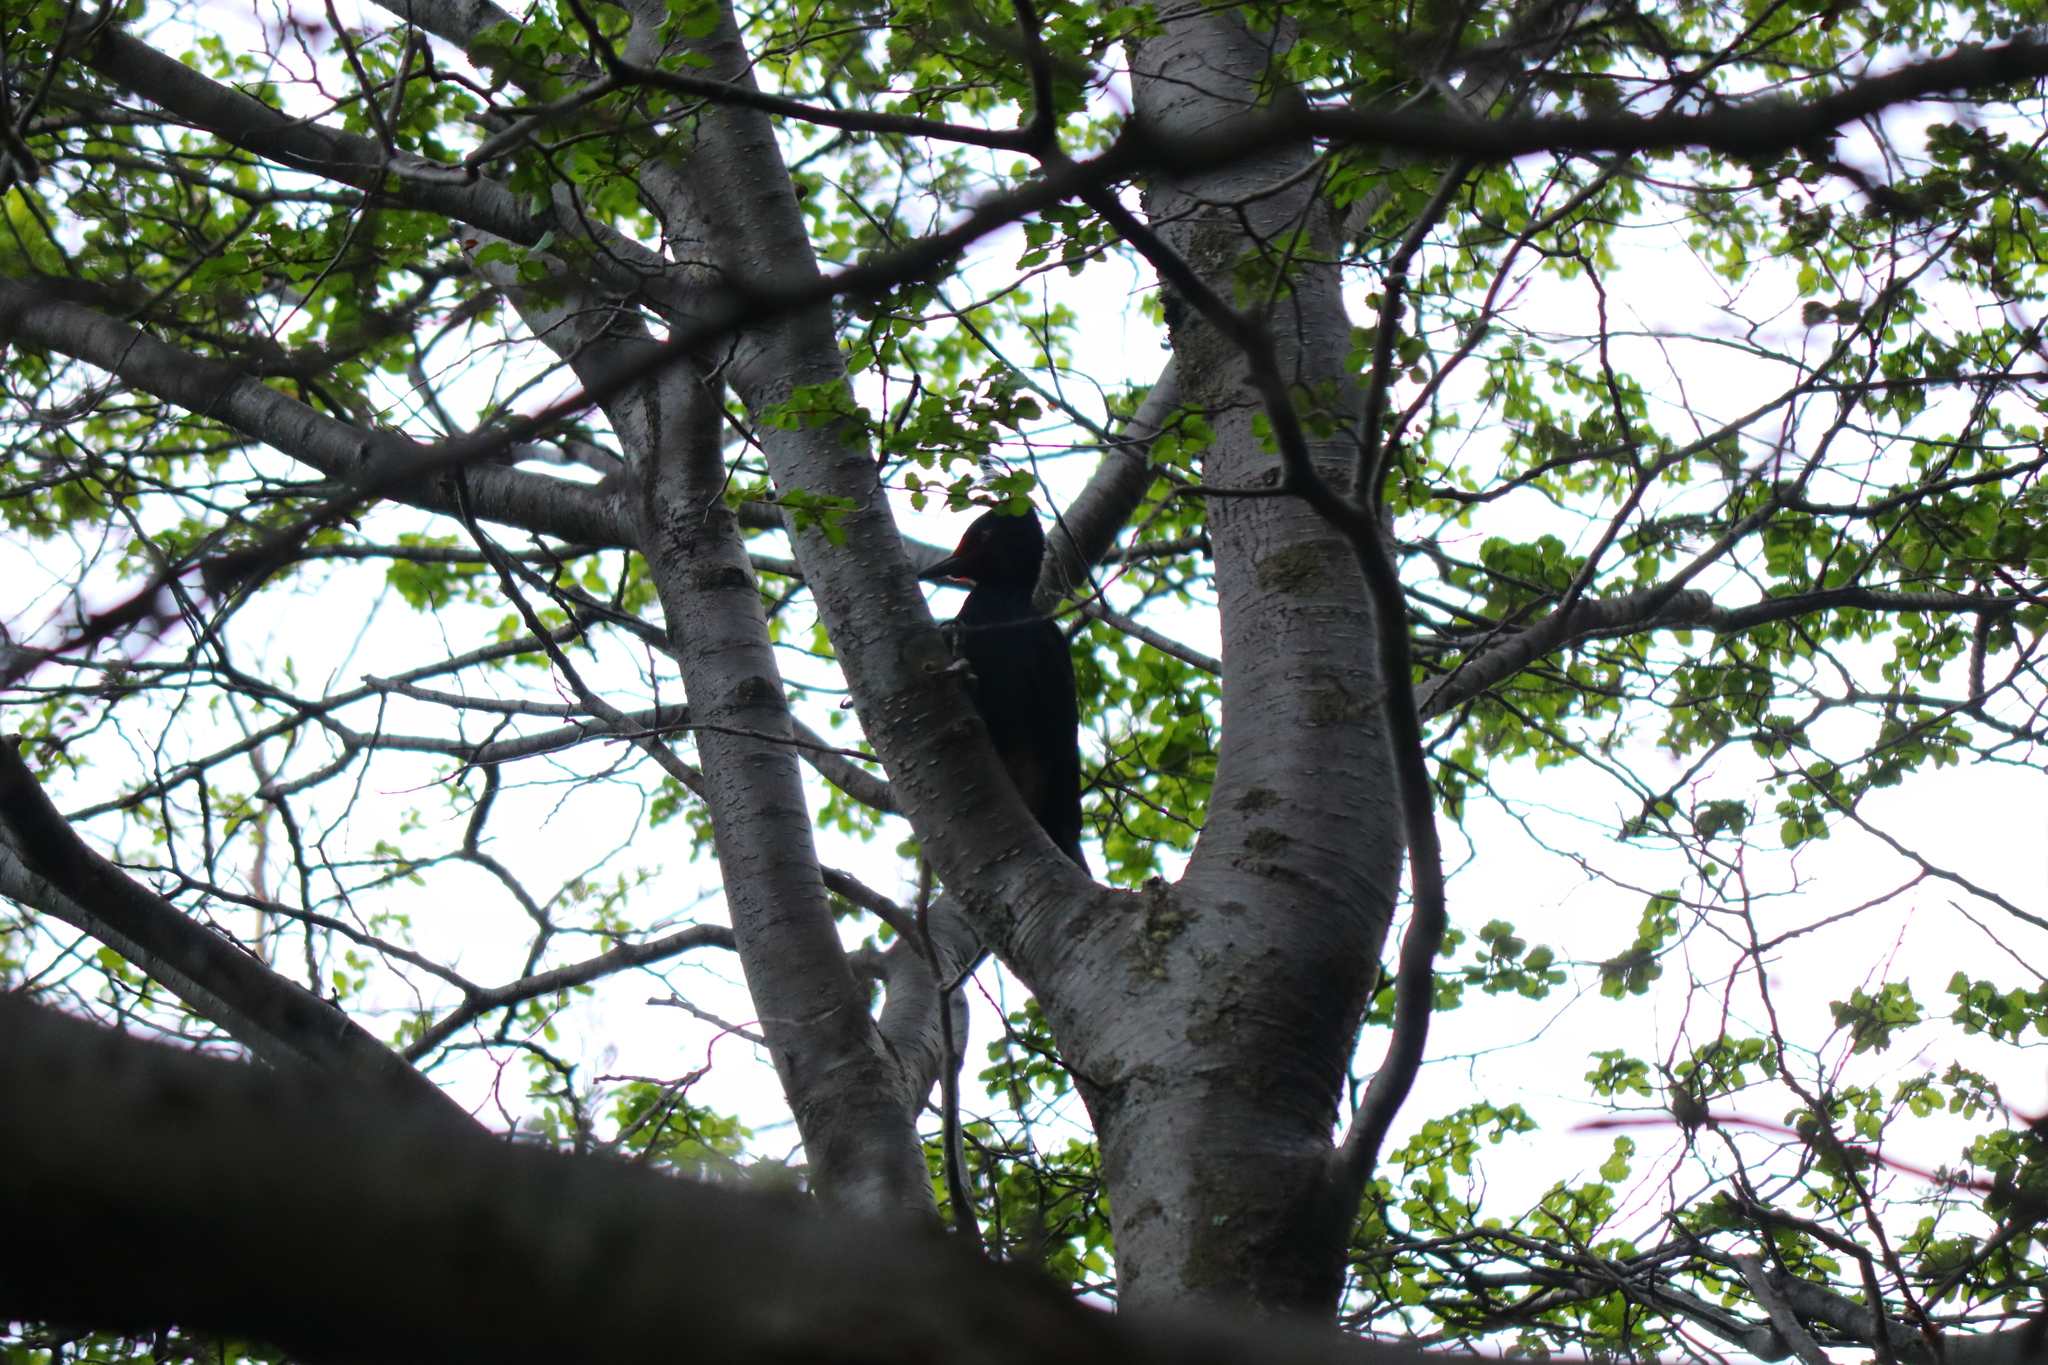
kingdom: Animalia
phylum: Chordata
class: Aves
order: Piciformes
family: Picidae
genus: Campephilus
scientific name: Campephilus magellanicus
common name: Magellanic woodpecker
